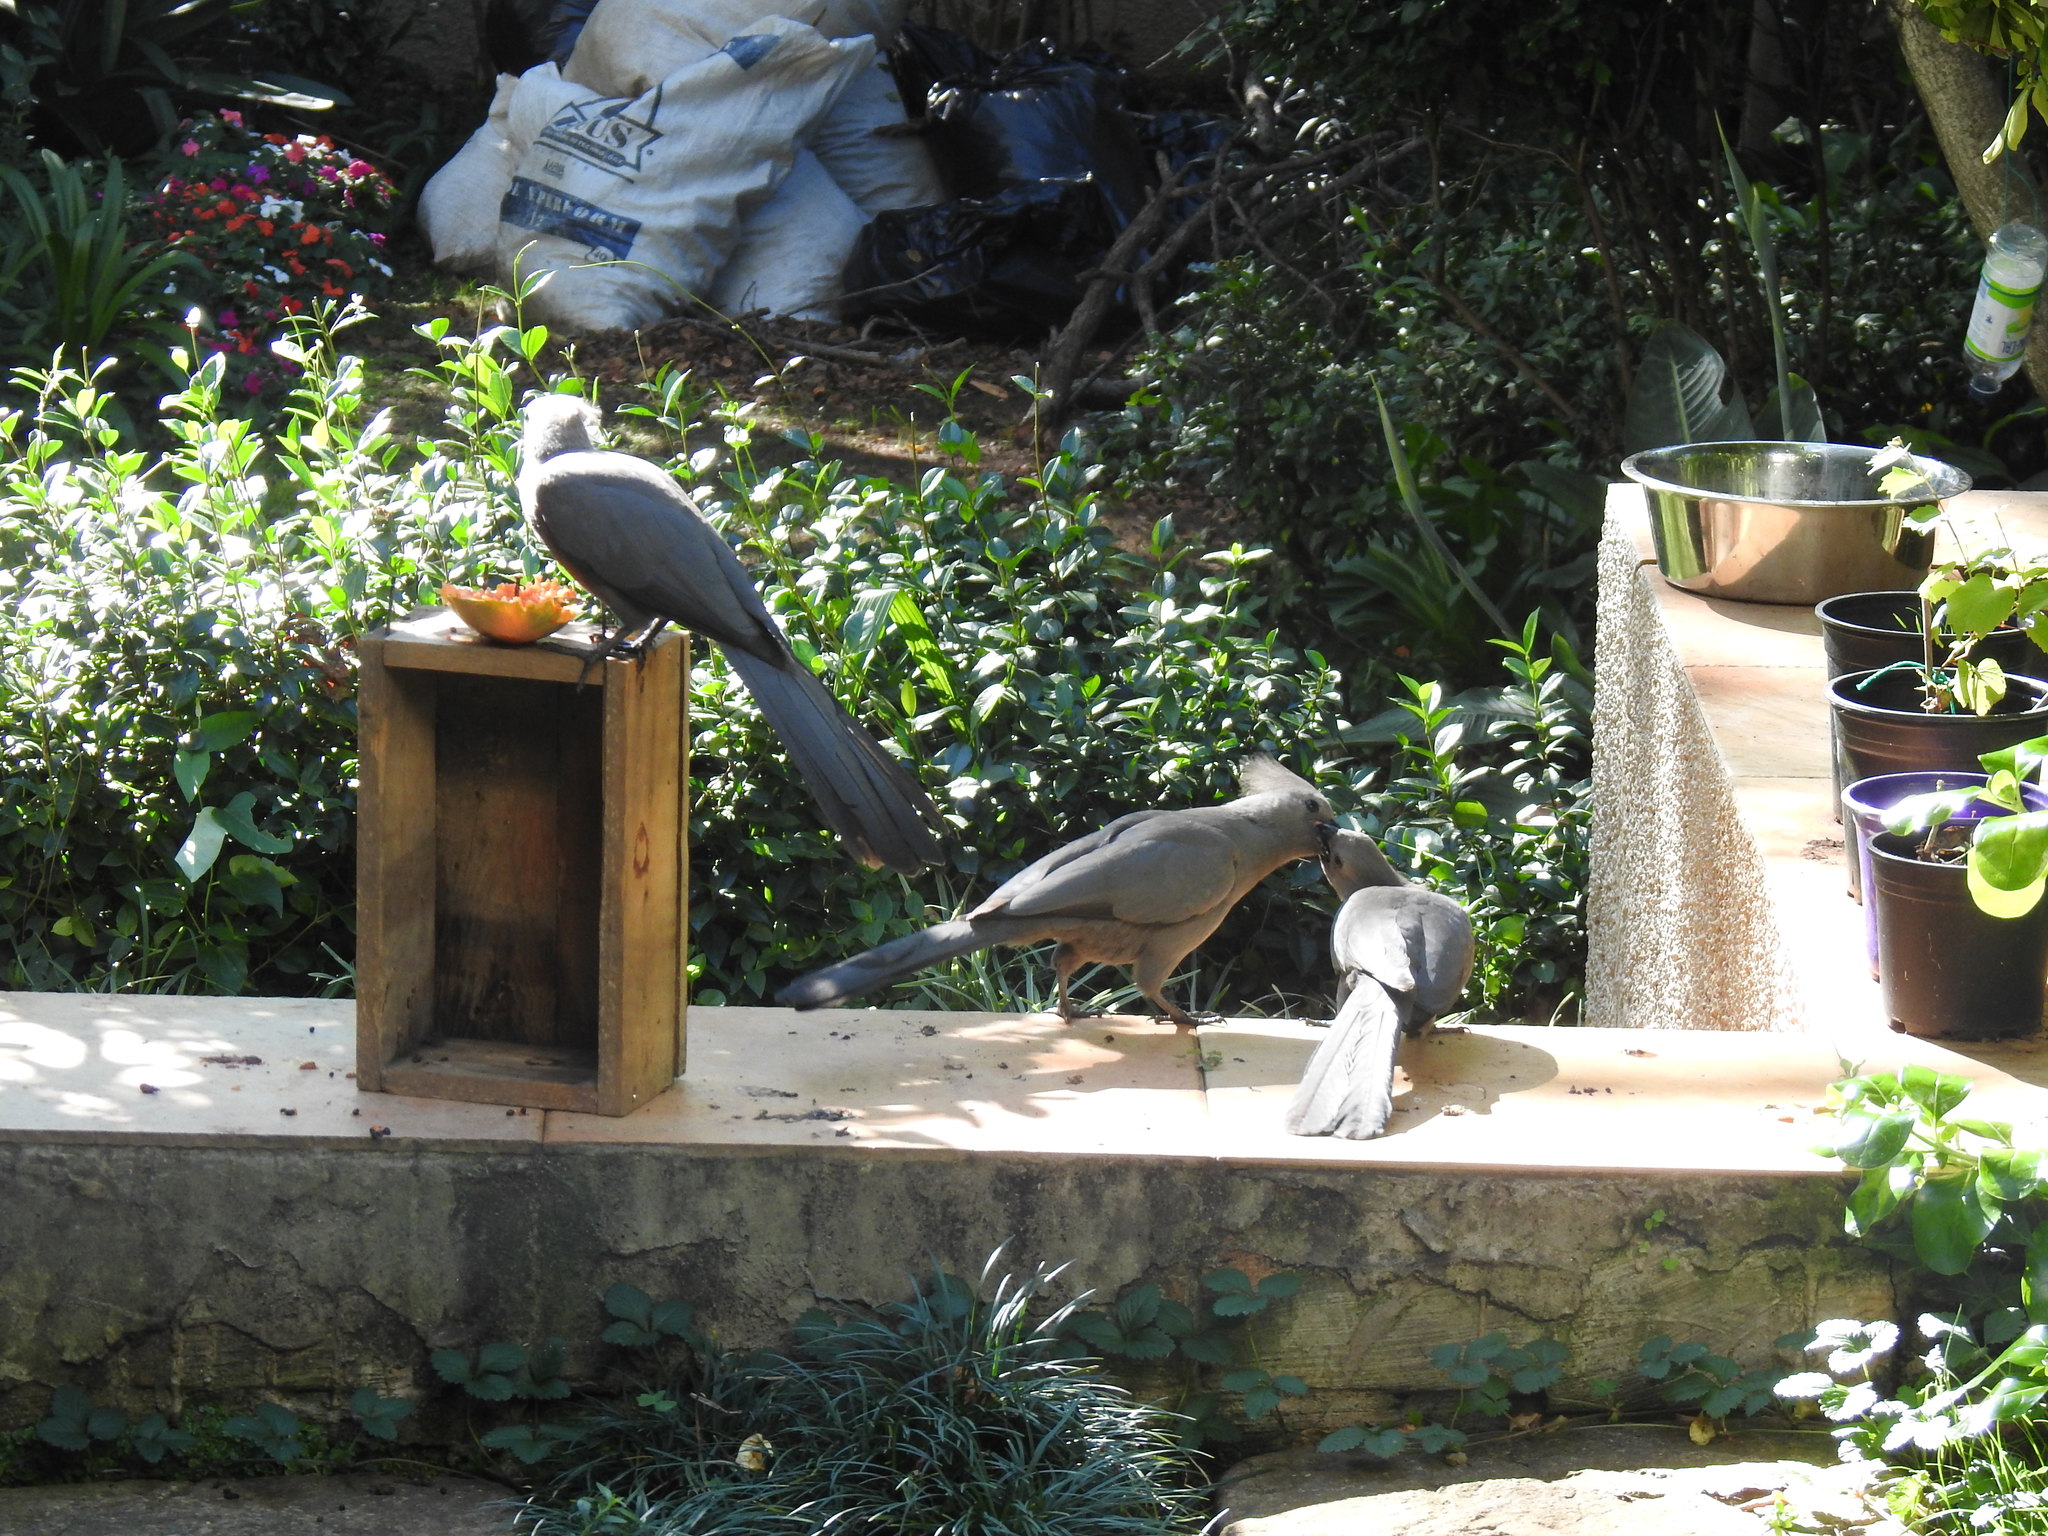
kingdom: Animalia
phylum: Chordata
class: Aves
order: Musophagiformes
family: Musophagidae
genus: Corythaixoides
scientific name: Corythaixoides concolor
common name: Grey go-away-bird
